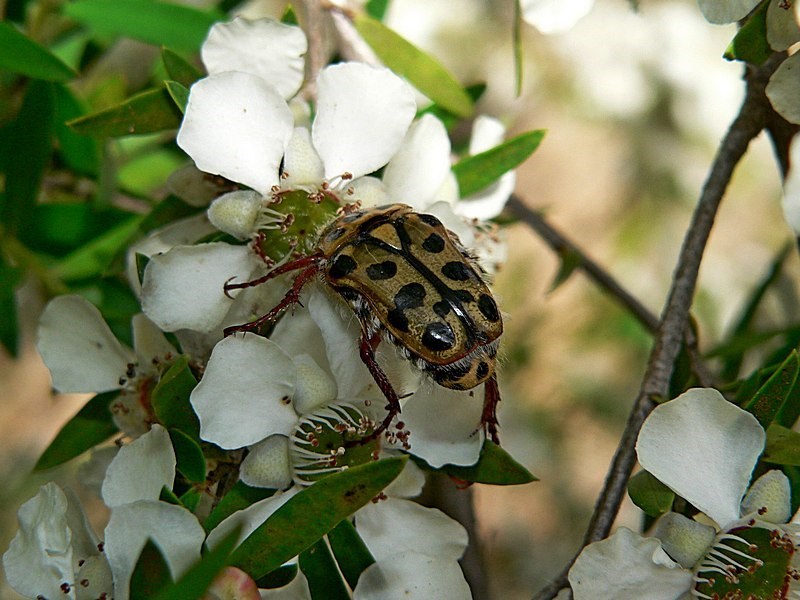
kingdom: Animalia
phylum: Arthropoda
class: Insecta
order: Coleoptera
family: Scarabaeidae
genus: Neorrhina
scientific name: Neorrhina punctatum
